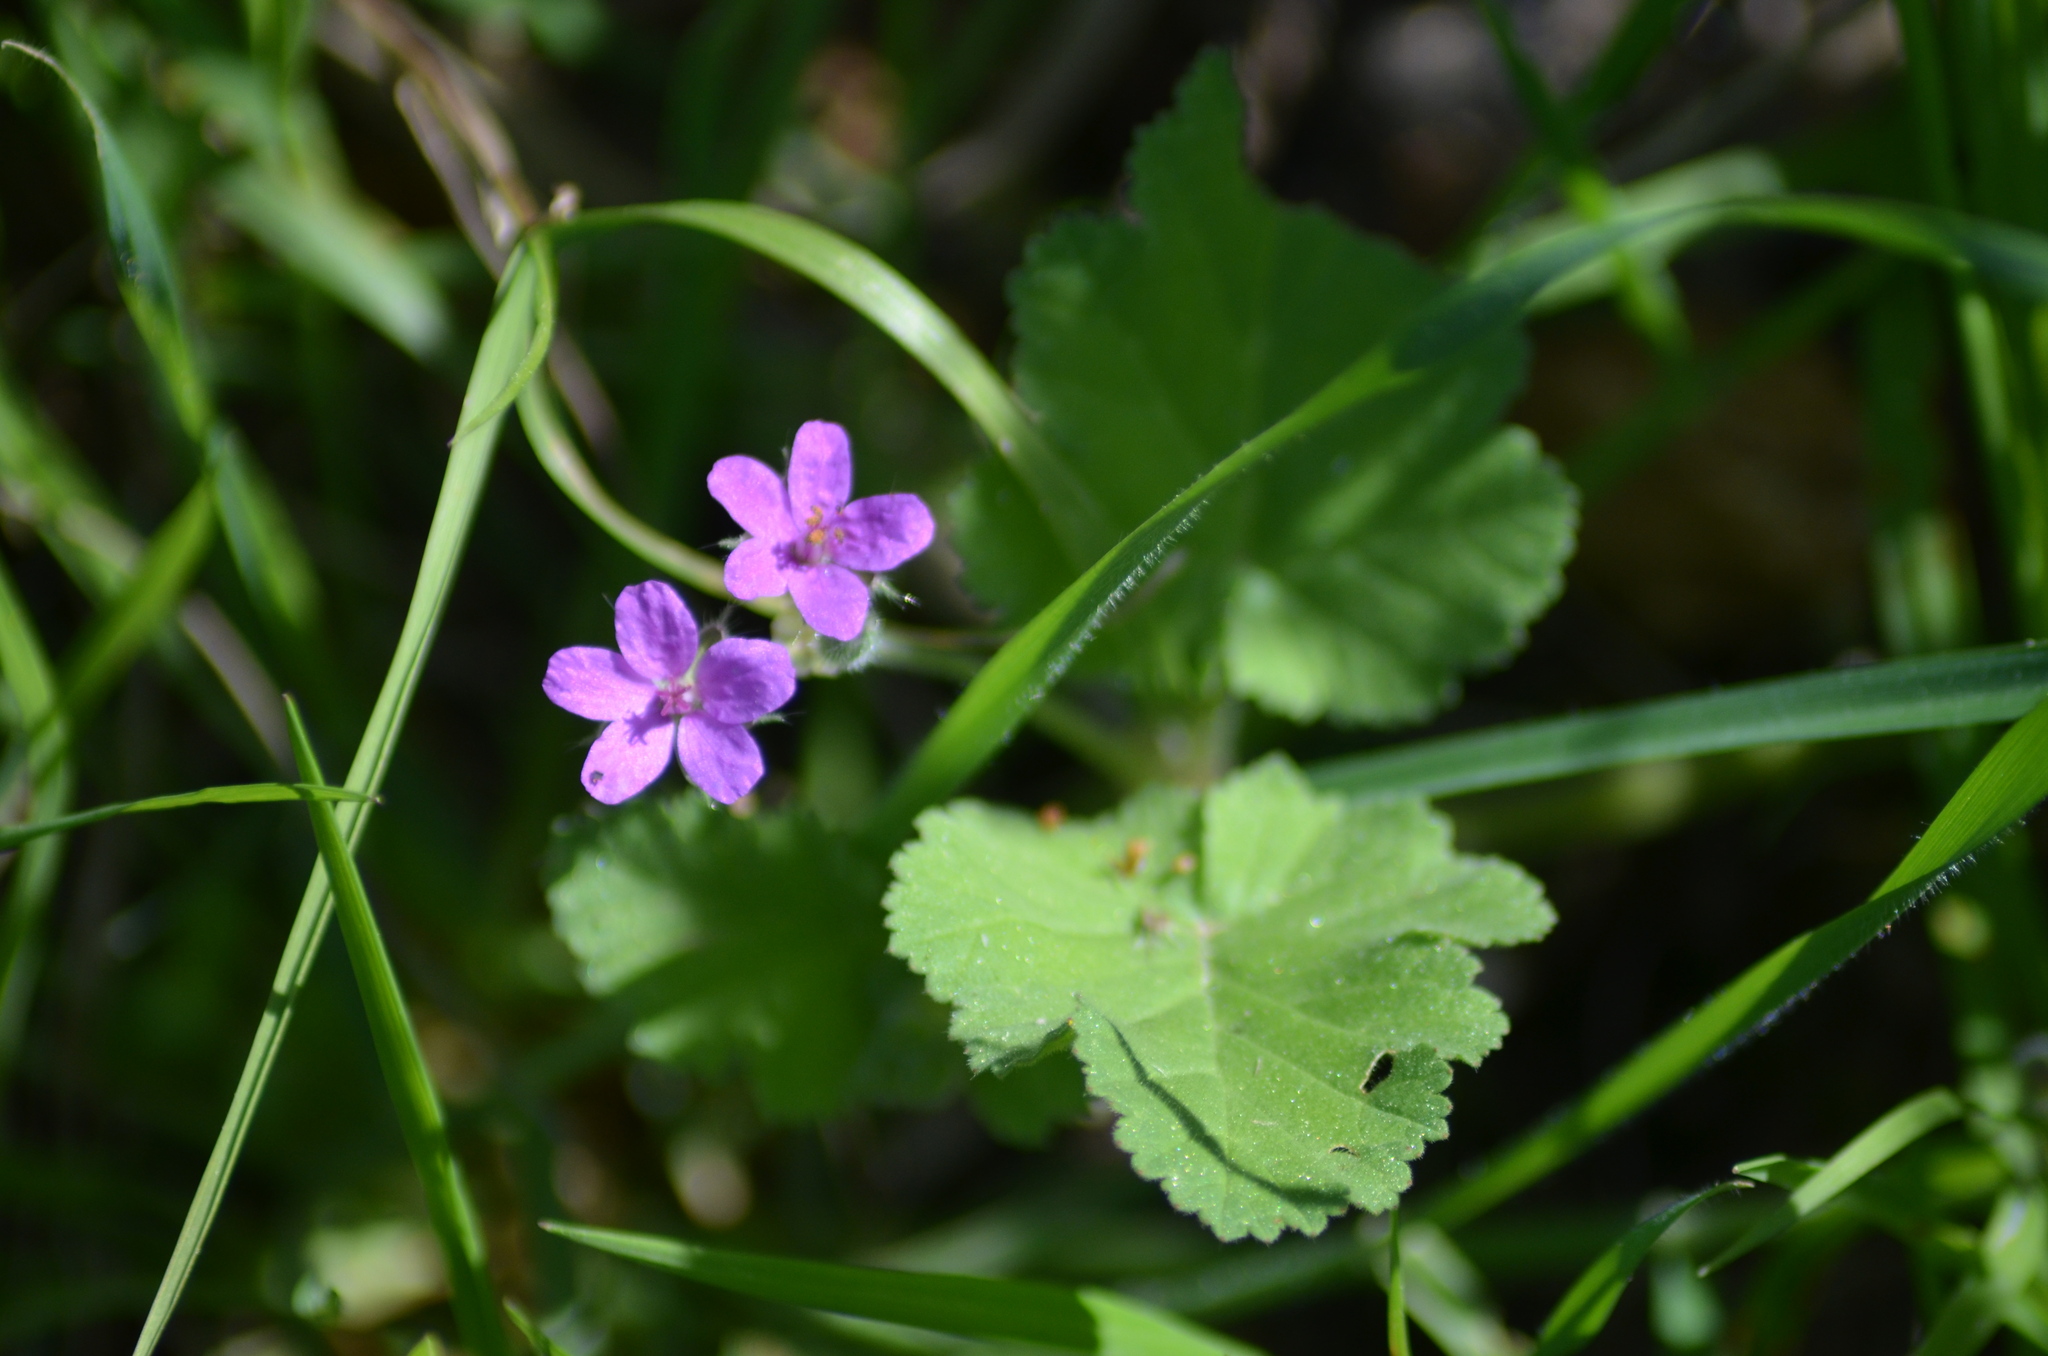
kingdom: Plantae
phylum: Tracheophyta
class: Magnoliopsida
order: Geraniales
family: Geraniaceae
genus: Erodium
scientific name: Erodium malacoides
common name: Soft stork's-bill
